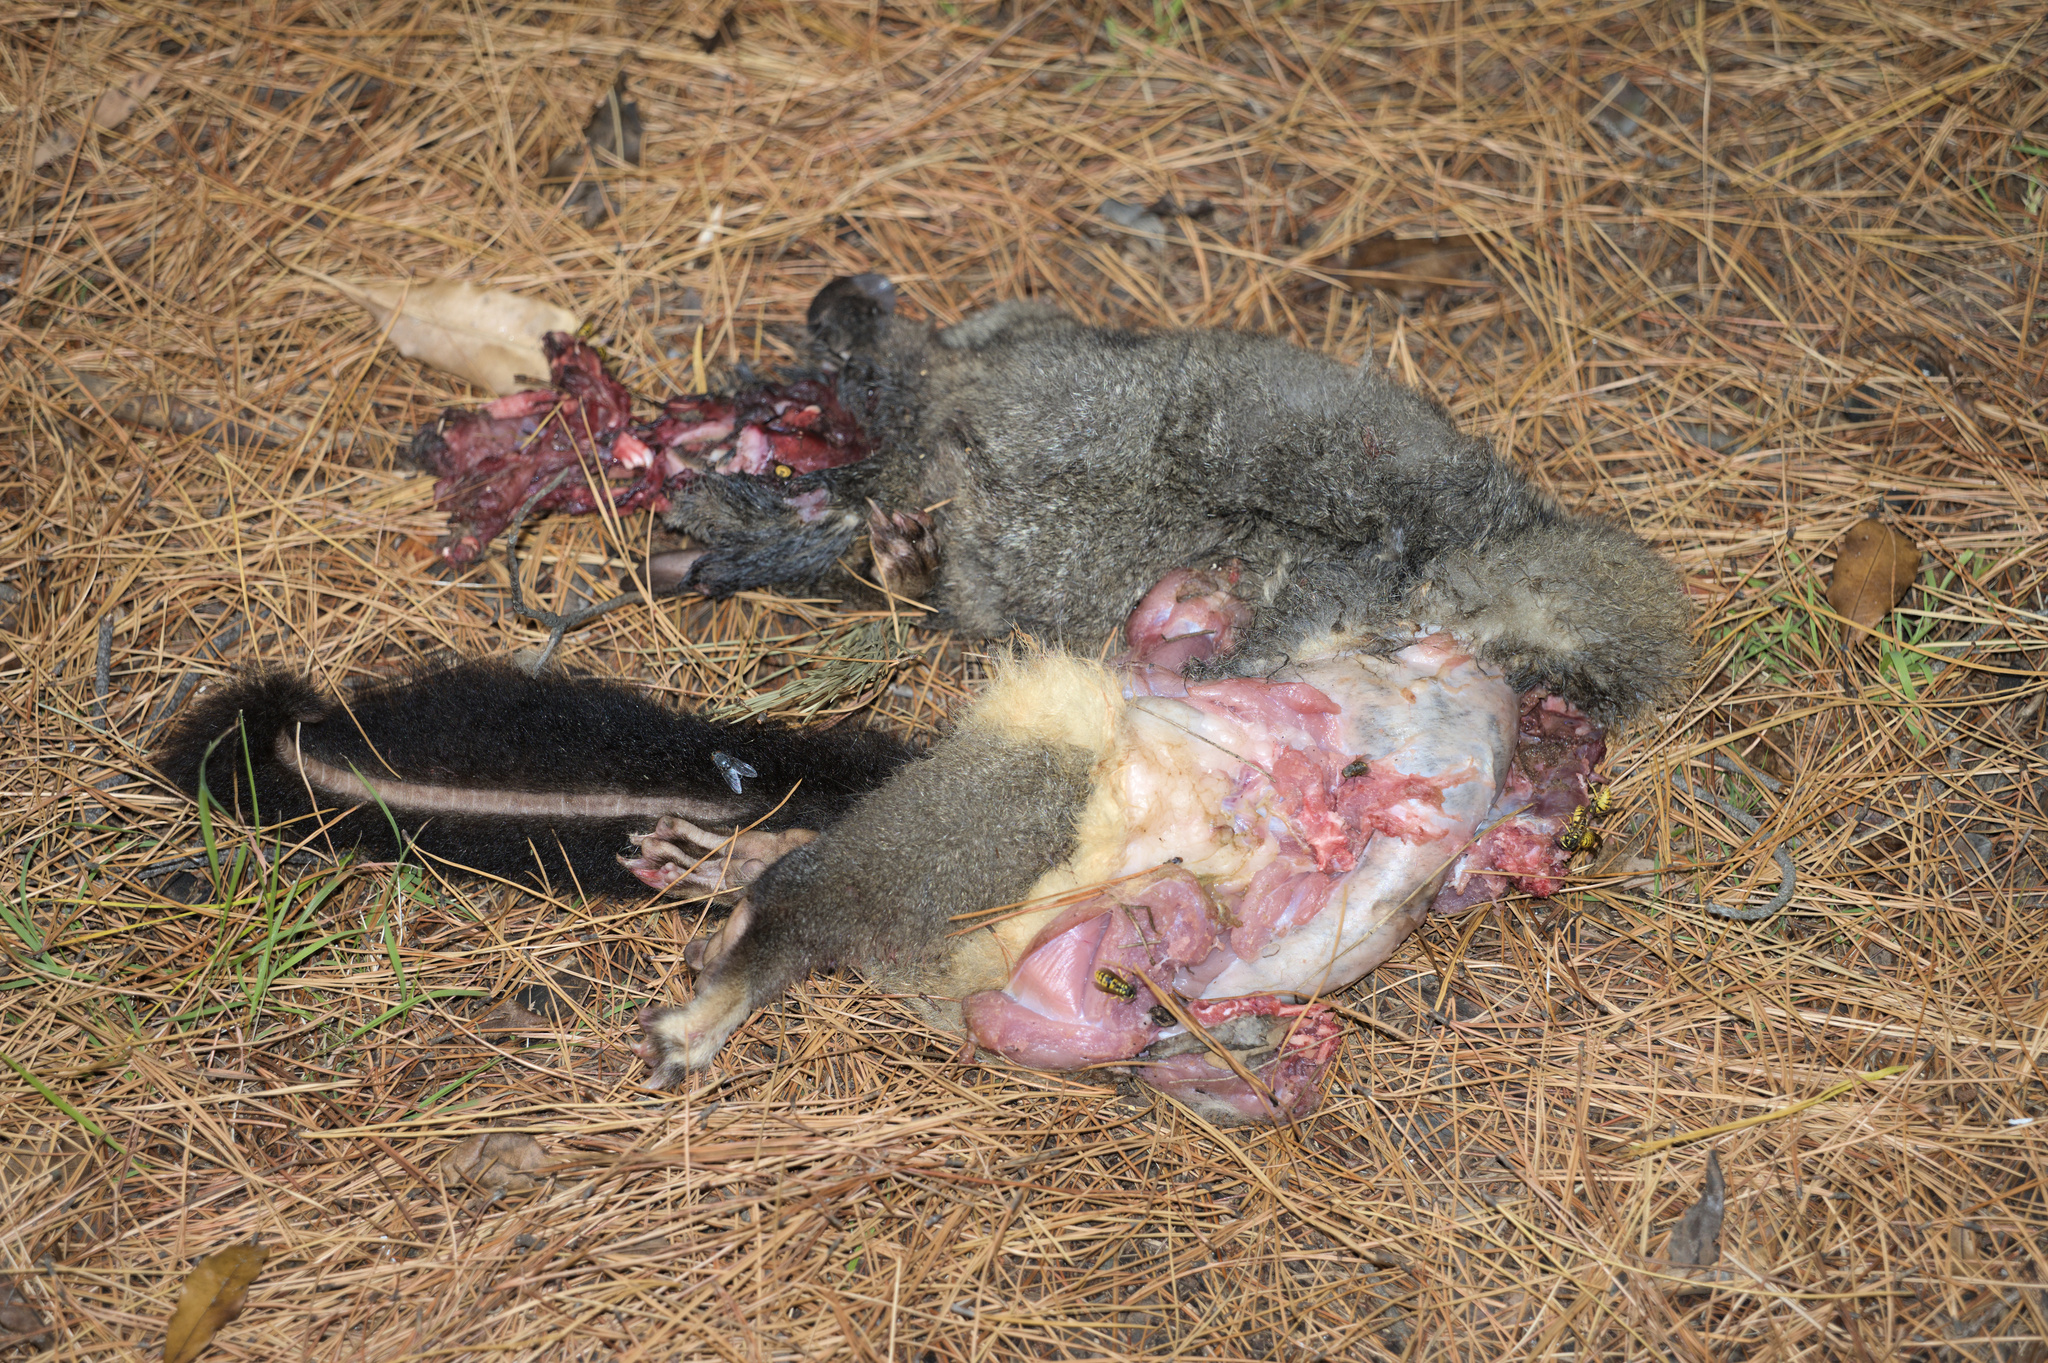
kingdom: Animalia
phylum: Chordata
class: Mammalia
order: Diprotodontia
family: Phalangeridae
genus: Trichosurus
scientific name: Trichosurus vulpecula
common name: Common brushtail
